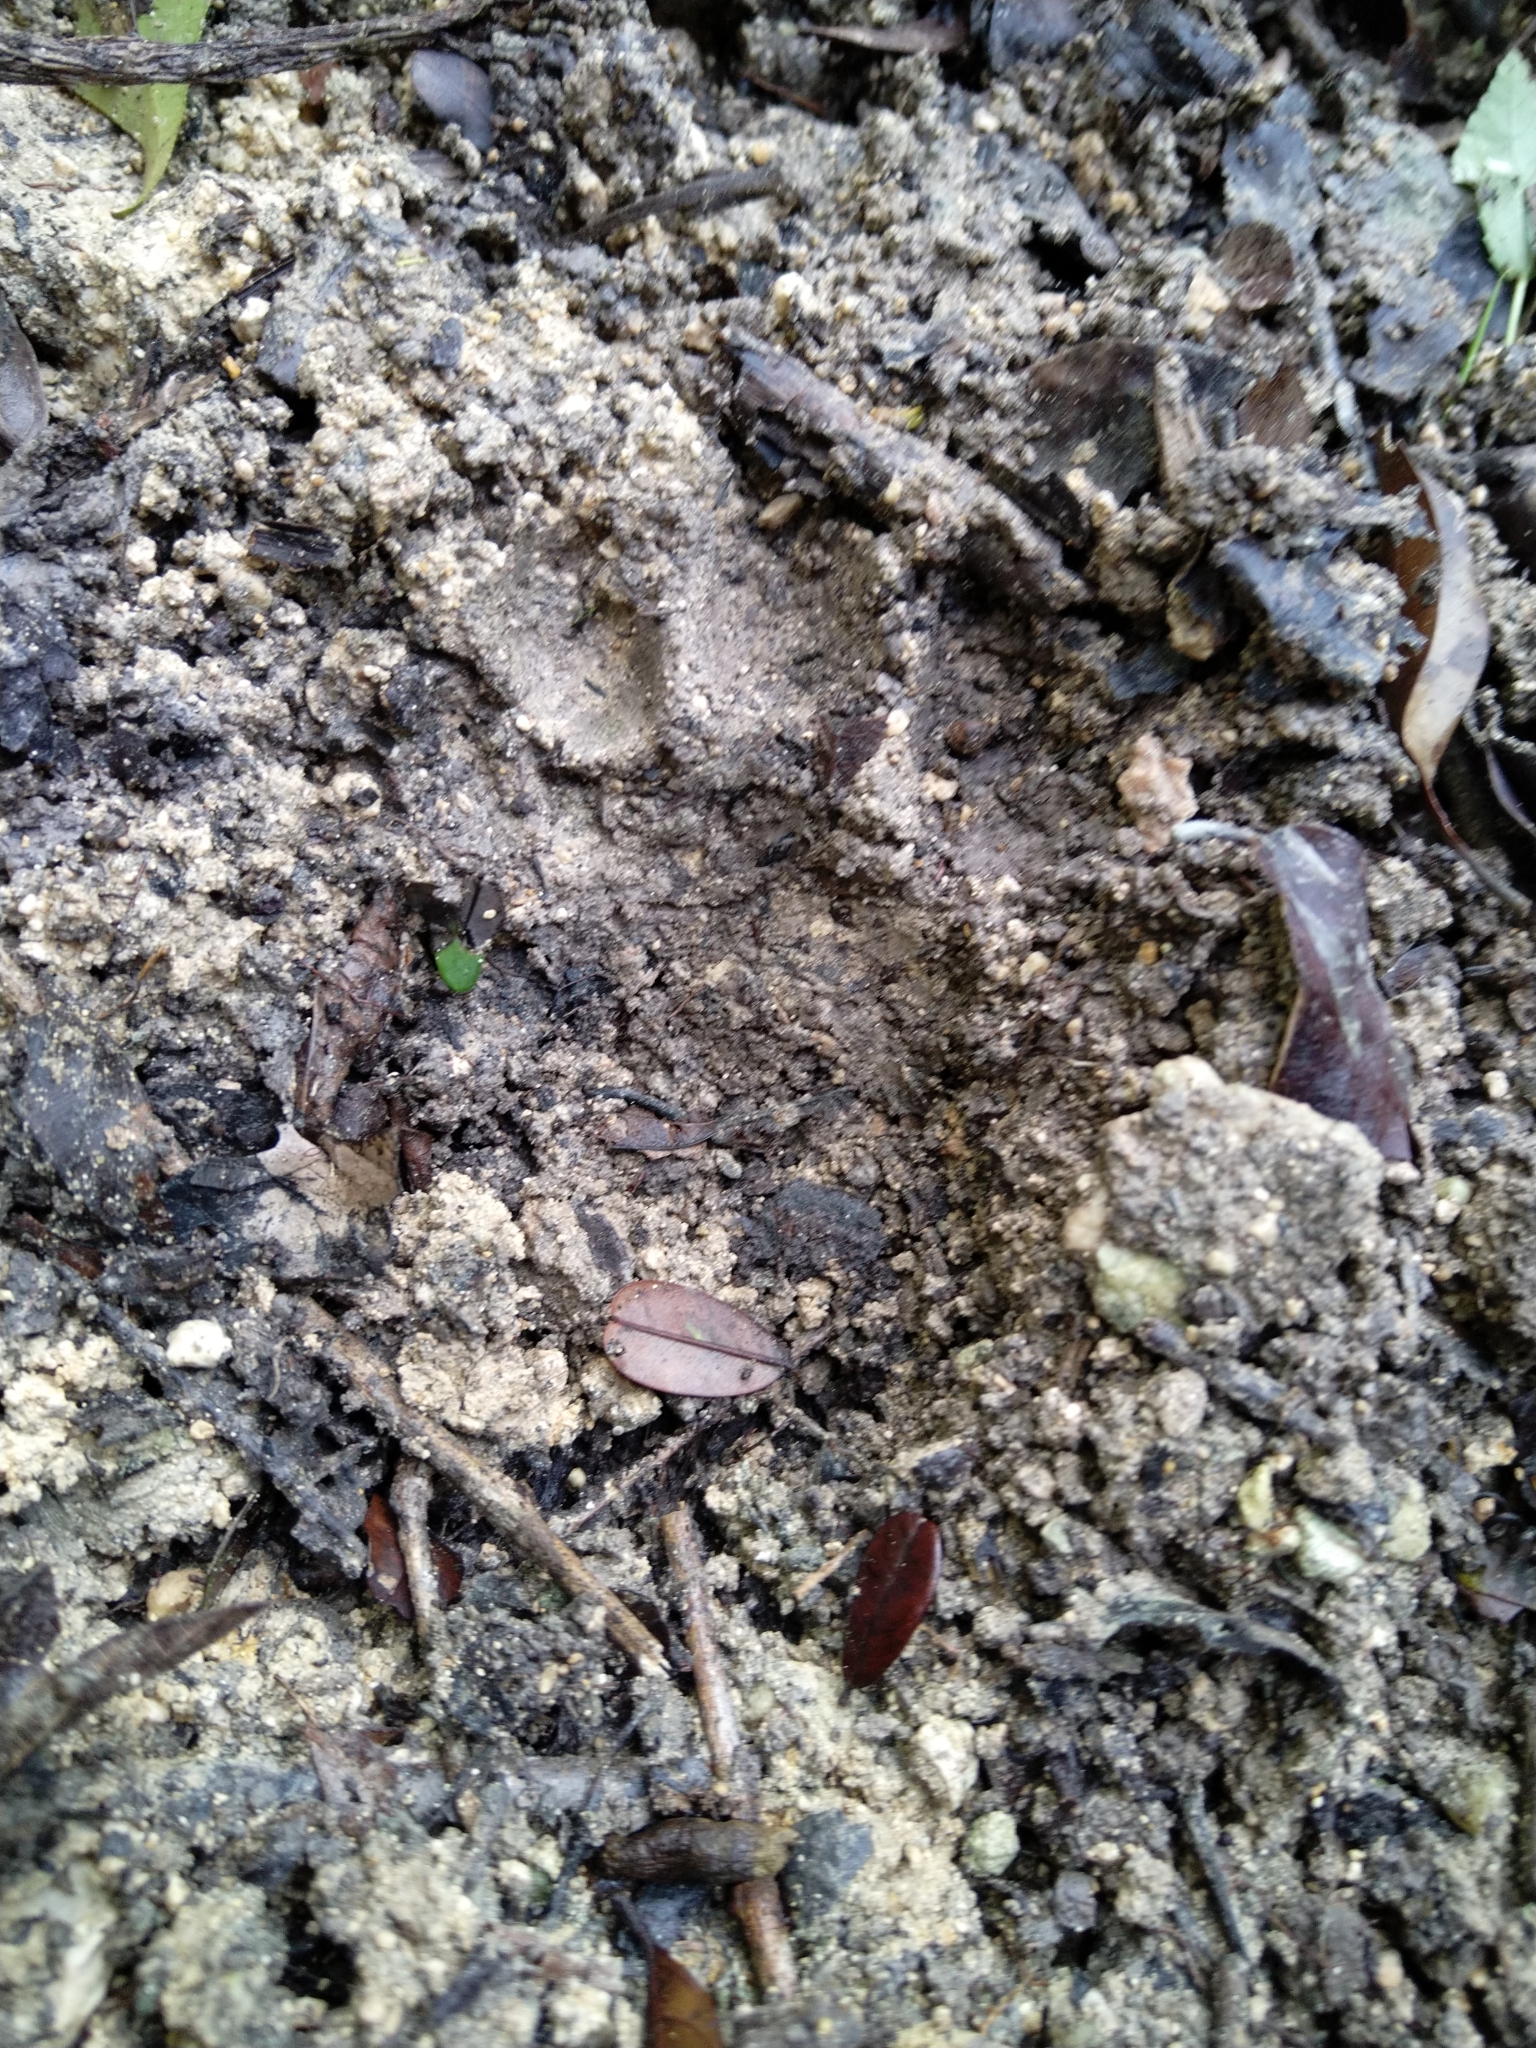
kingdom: Animalia
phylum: Chordata
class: Mammalia
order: Carnivora
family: Felidae
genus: Panthera
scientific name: Panthera onca
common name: Jaguar
